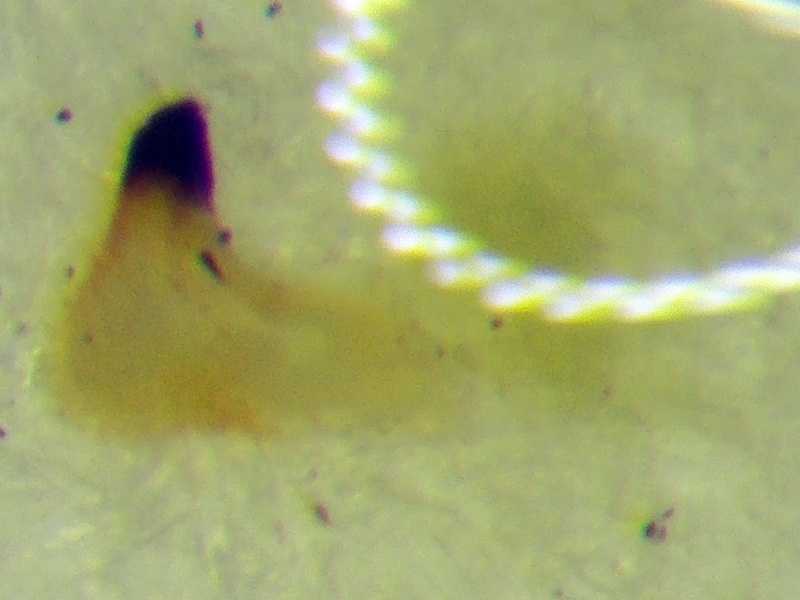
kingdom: Animalia
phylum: Arthropoda
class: Insecta
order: Hemiptera
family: Rhopalidae
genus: Maccevethus
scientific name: Maccevethus corsicus
